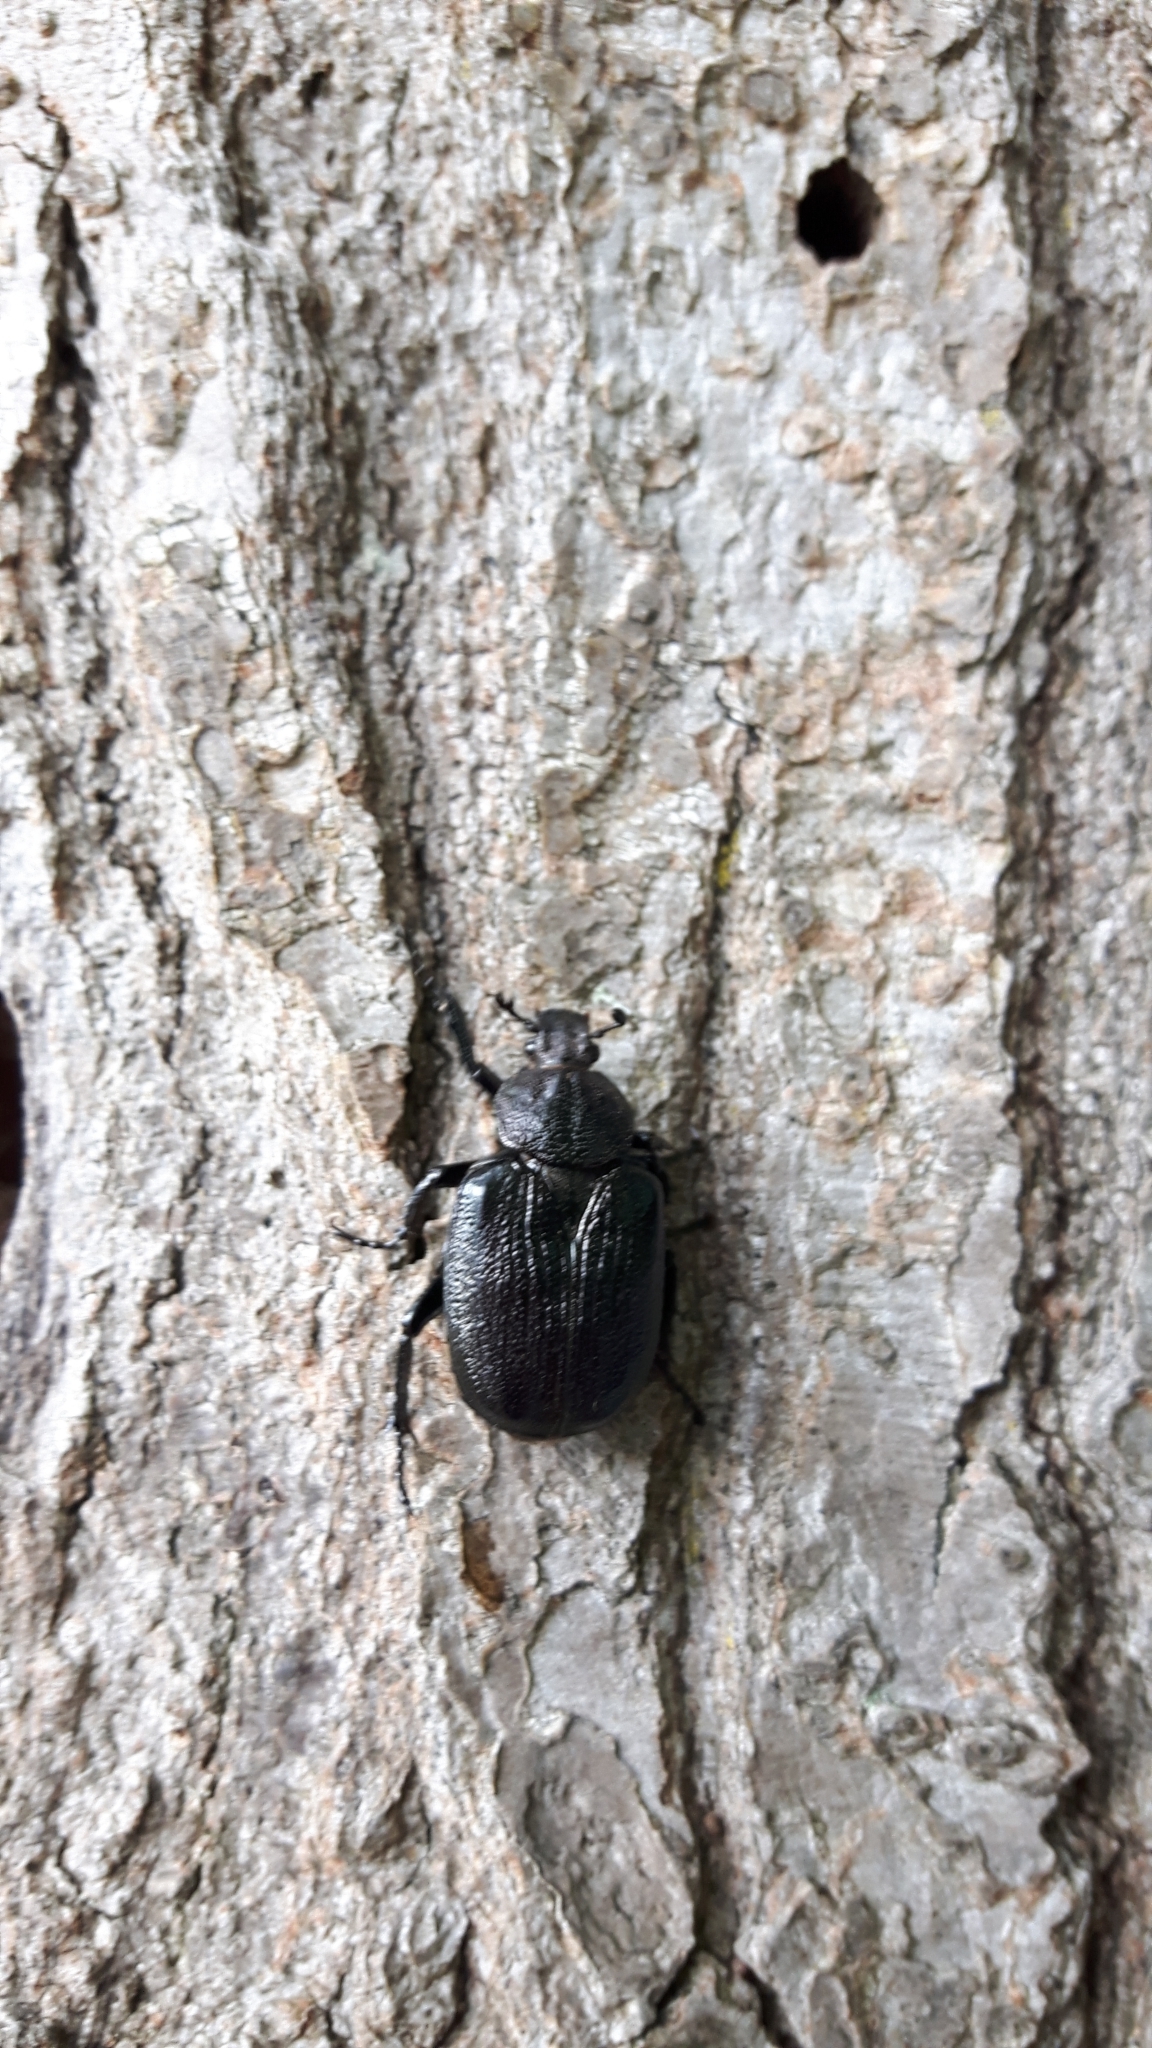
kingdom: Animalia
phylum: Arthropoda
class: Insecta
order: Coleoptera
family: Scarabaeidae
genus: Osmoderma
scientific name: Osmoderma scabra
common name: Rough hermit beetle
